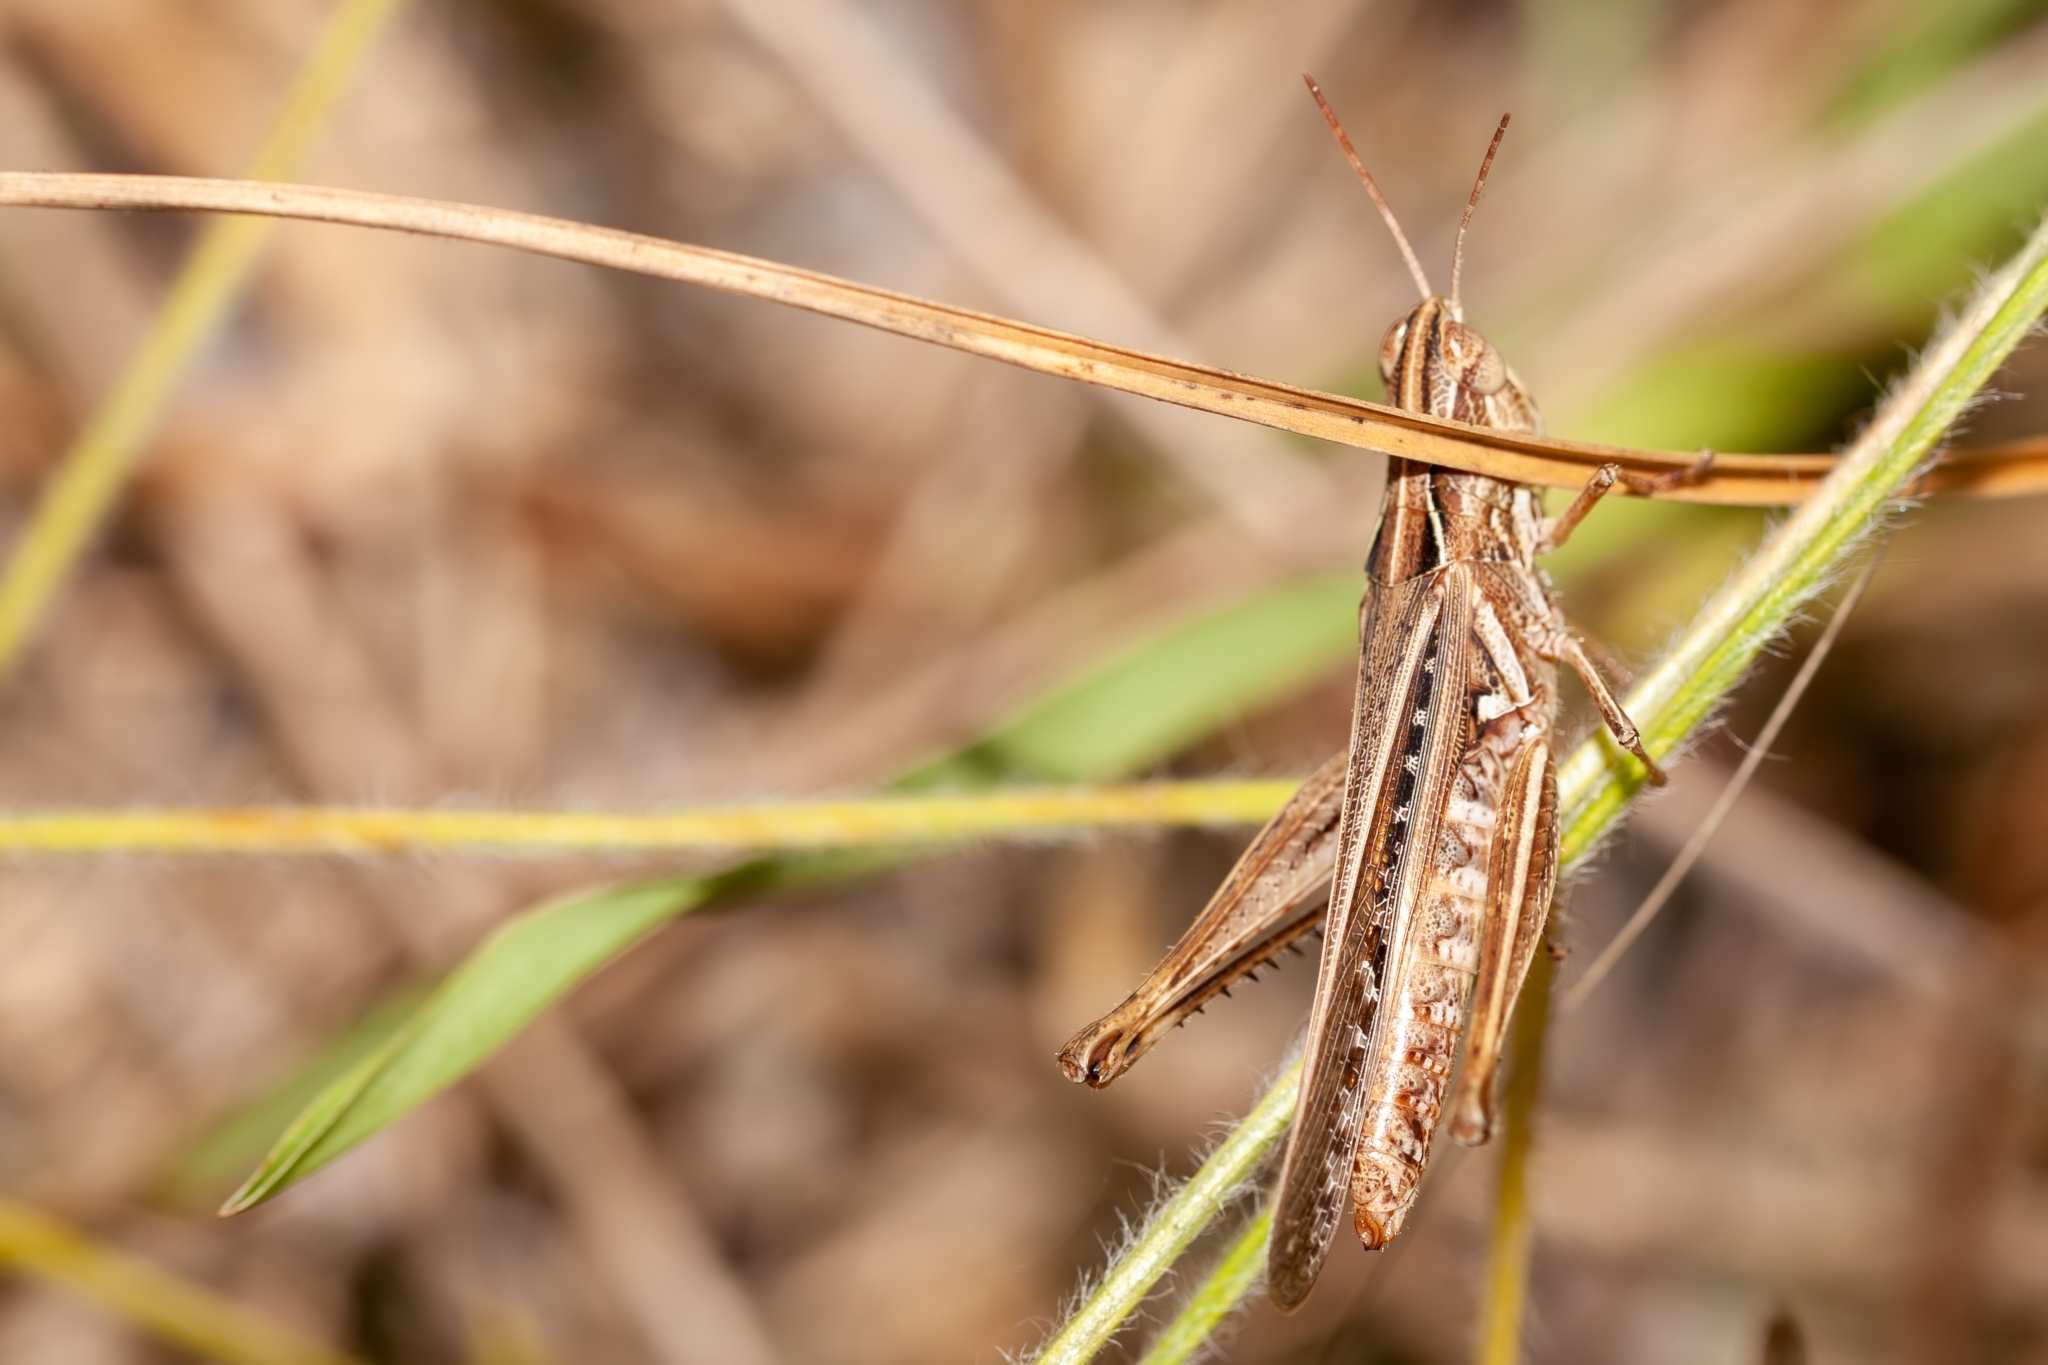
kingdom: Animalia
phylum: Arthropoda
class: Insecta
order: Orthoptera
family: Acrididae
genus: Orphulella
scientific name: Orphulella pelidna
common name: Spotted-wing grasshopper
